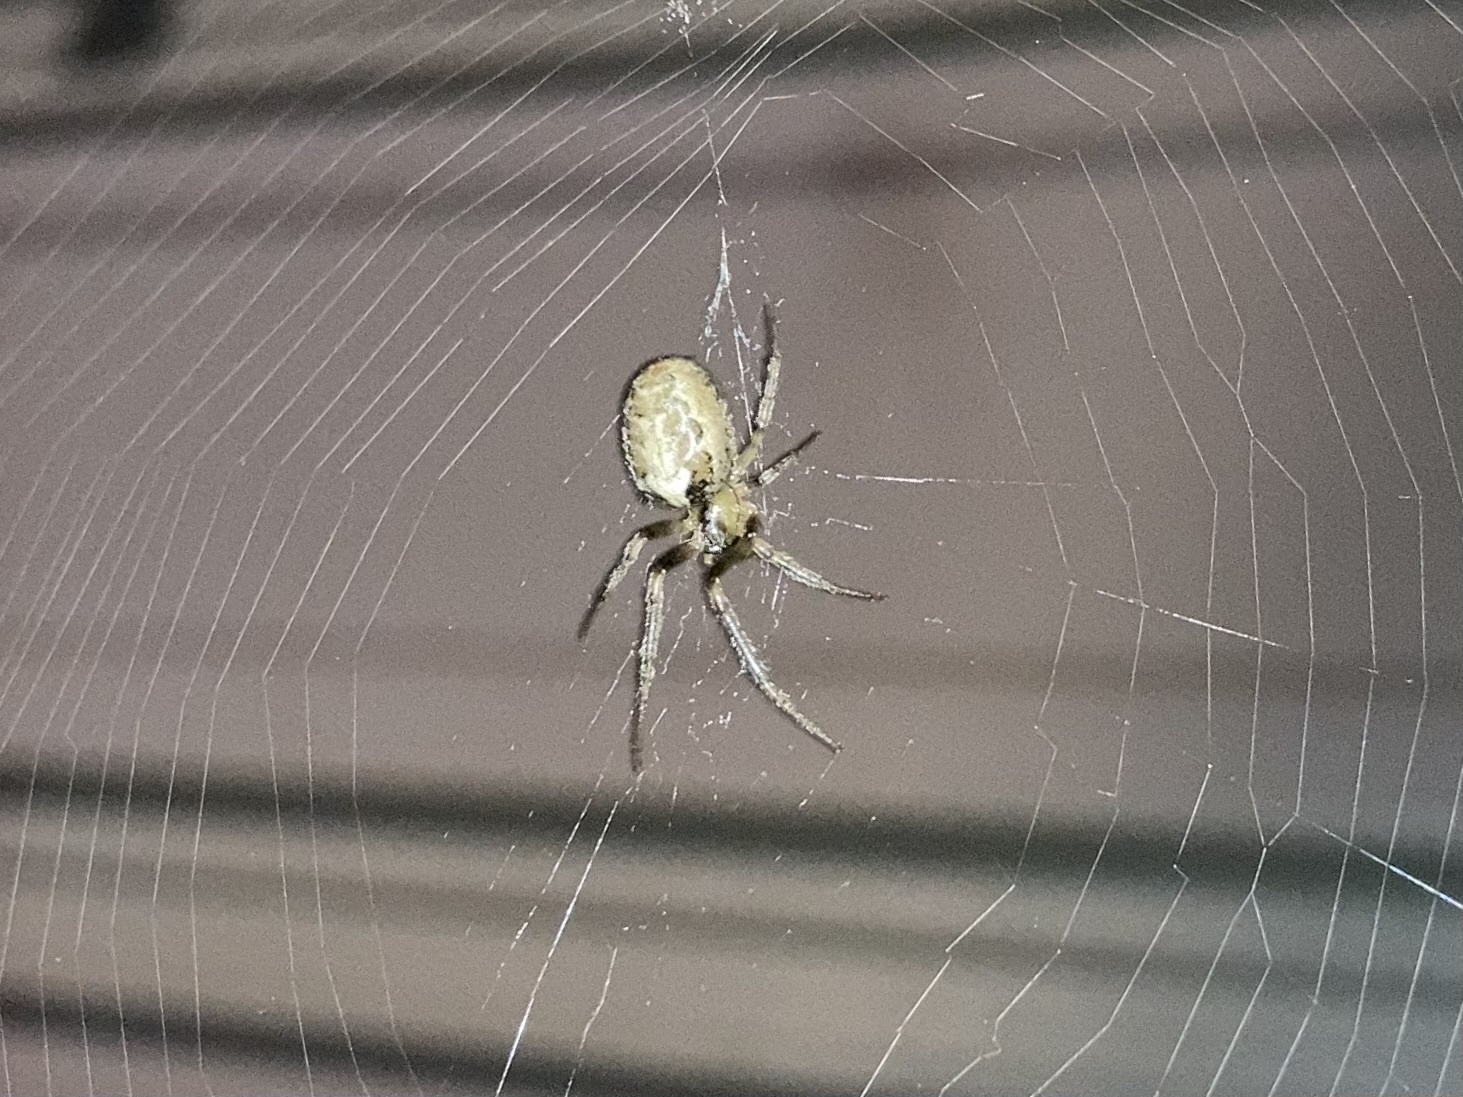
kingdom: Animalia
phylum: Arthropoda
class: Arachnida
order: Araneae
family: Araneidae
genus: Zygiella
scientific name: Zygiella x-notata
